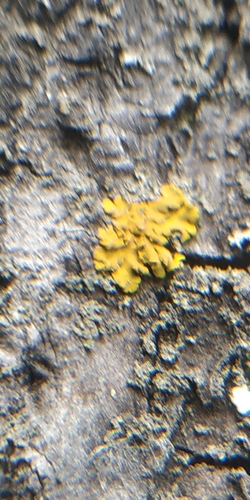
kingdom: Fungi
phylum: Ascomycota
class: Lecanoromycetes
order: Teloschistales
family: Teloschistaceae
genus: Xanthoria
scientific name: Xanthoria parietina
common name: Common orange lichen
